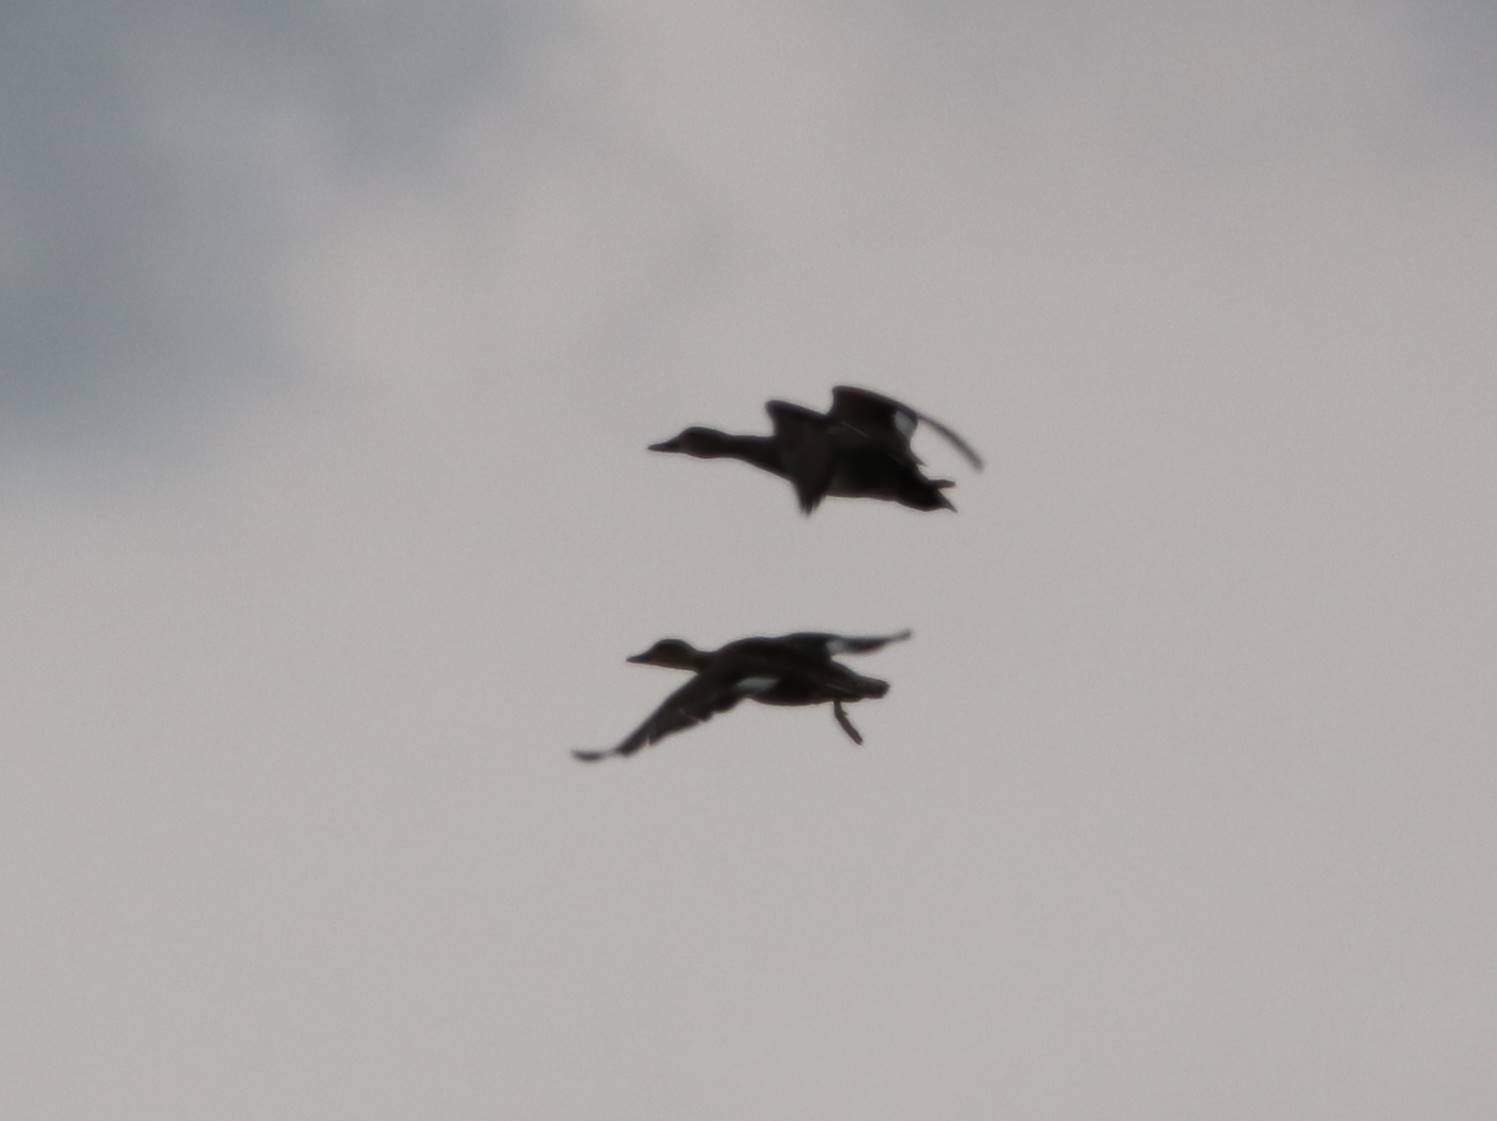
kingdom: Animalia
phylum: Chordata
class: Aves
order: Anseriformes
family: Anatidae
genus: Aythya
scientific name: Aythya nyroca
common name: Ferruginous duck
